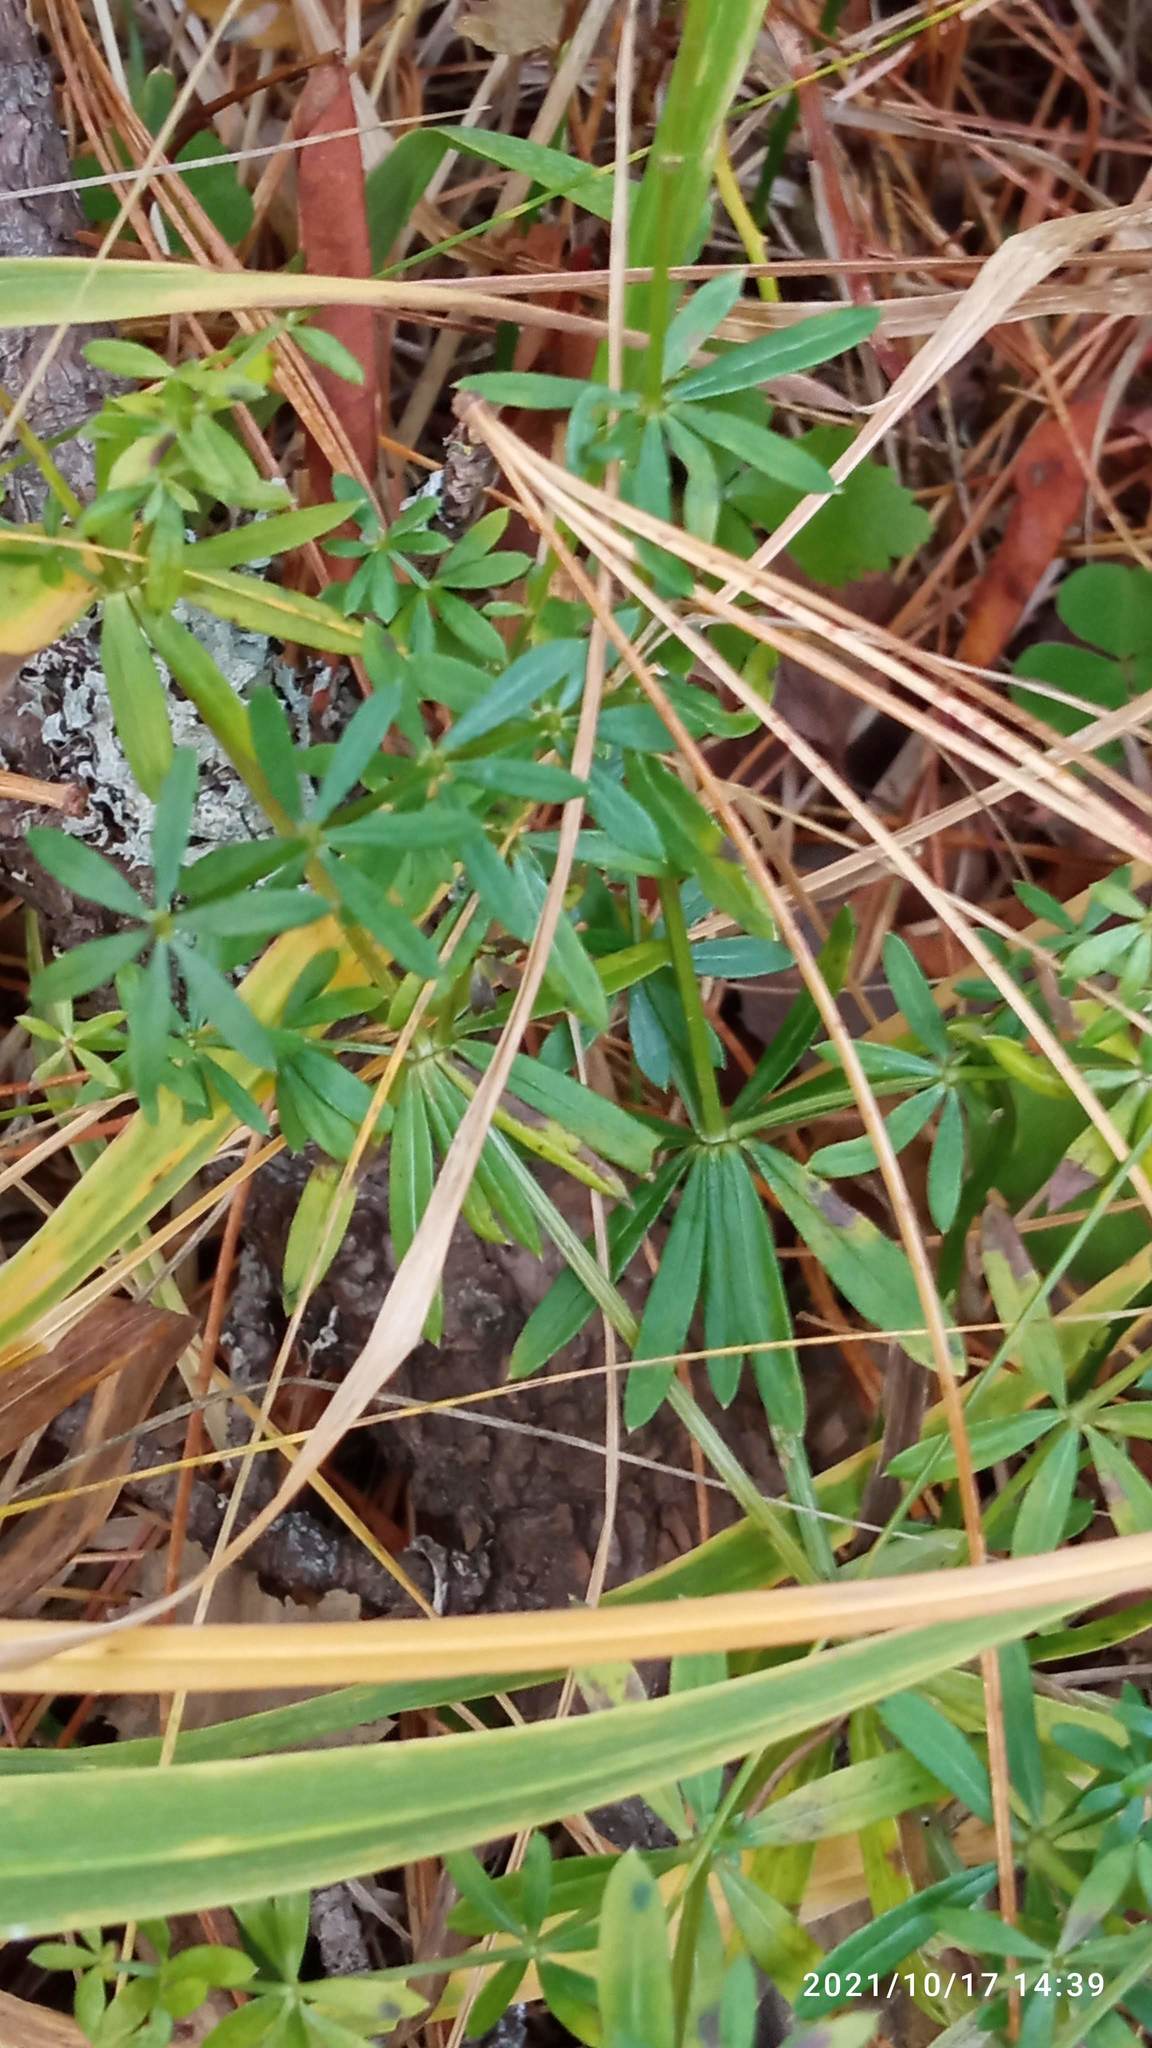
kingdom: Plantae
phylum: Tracheophyta
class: Magnoliopsida
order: Gentianales
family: Rubiaceae
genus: Galium
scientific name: Galium mollugo
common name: Hedge bedstraw
